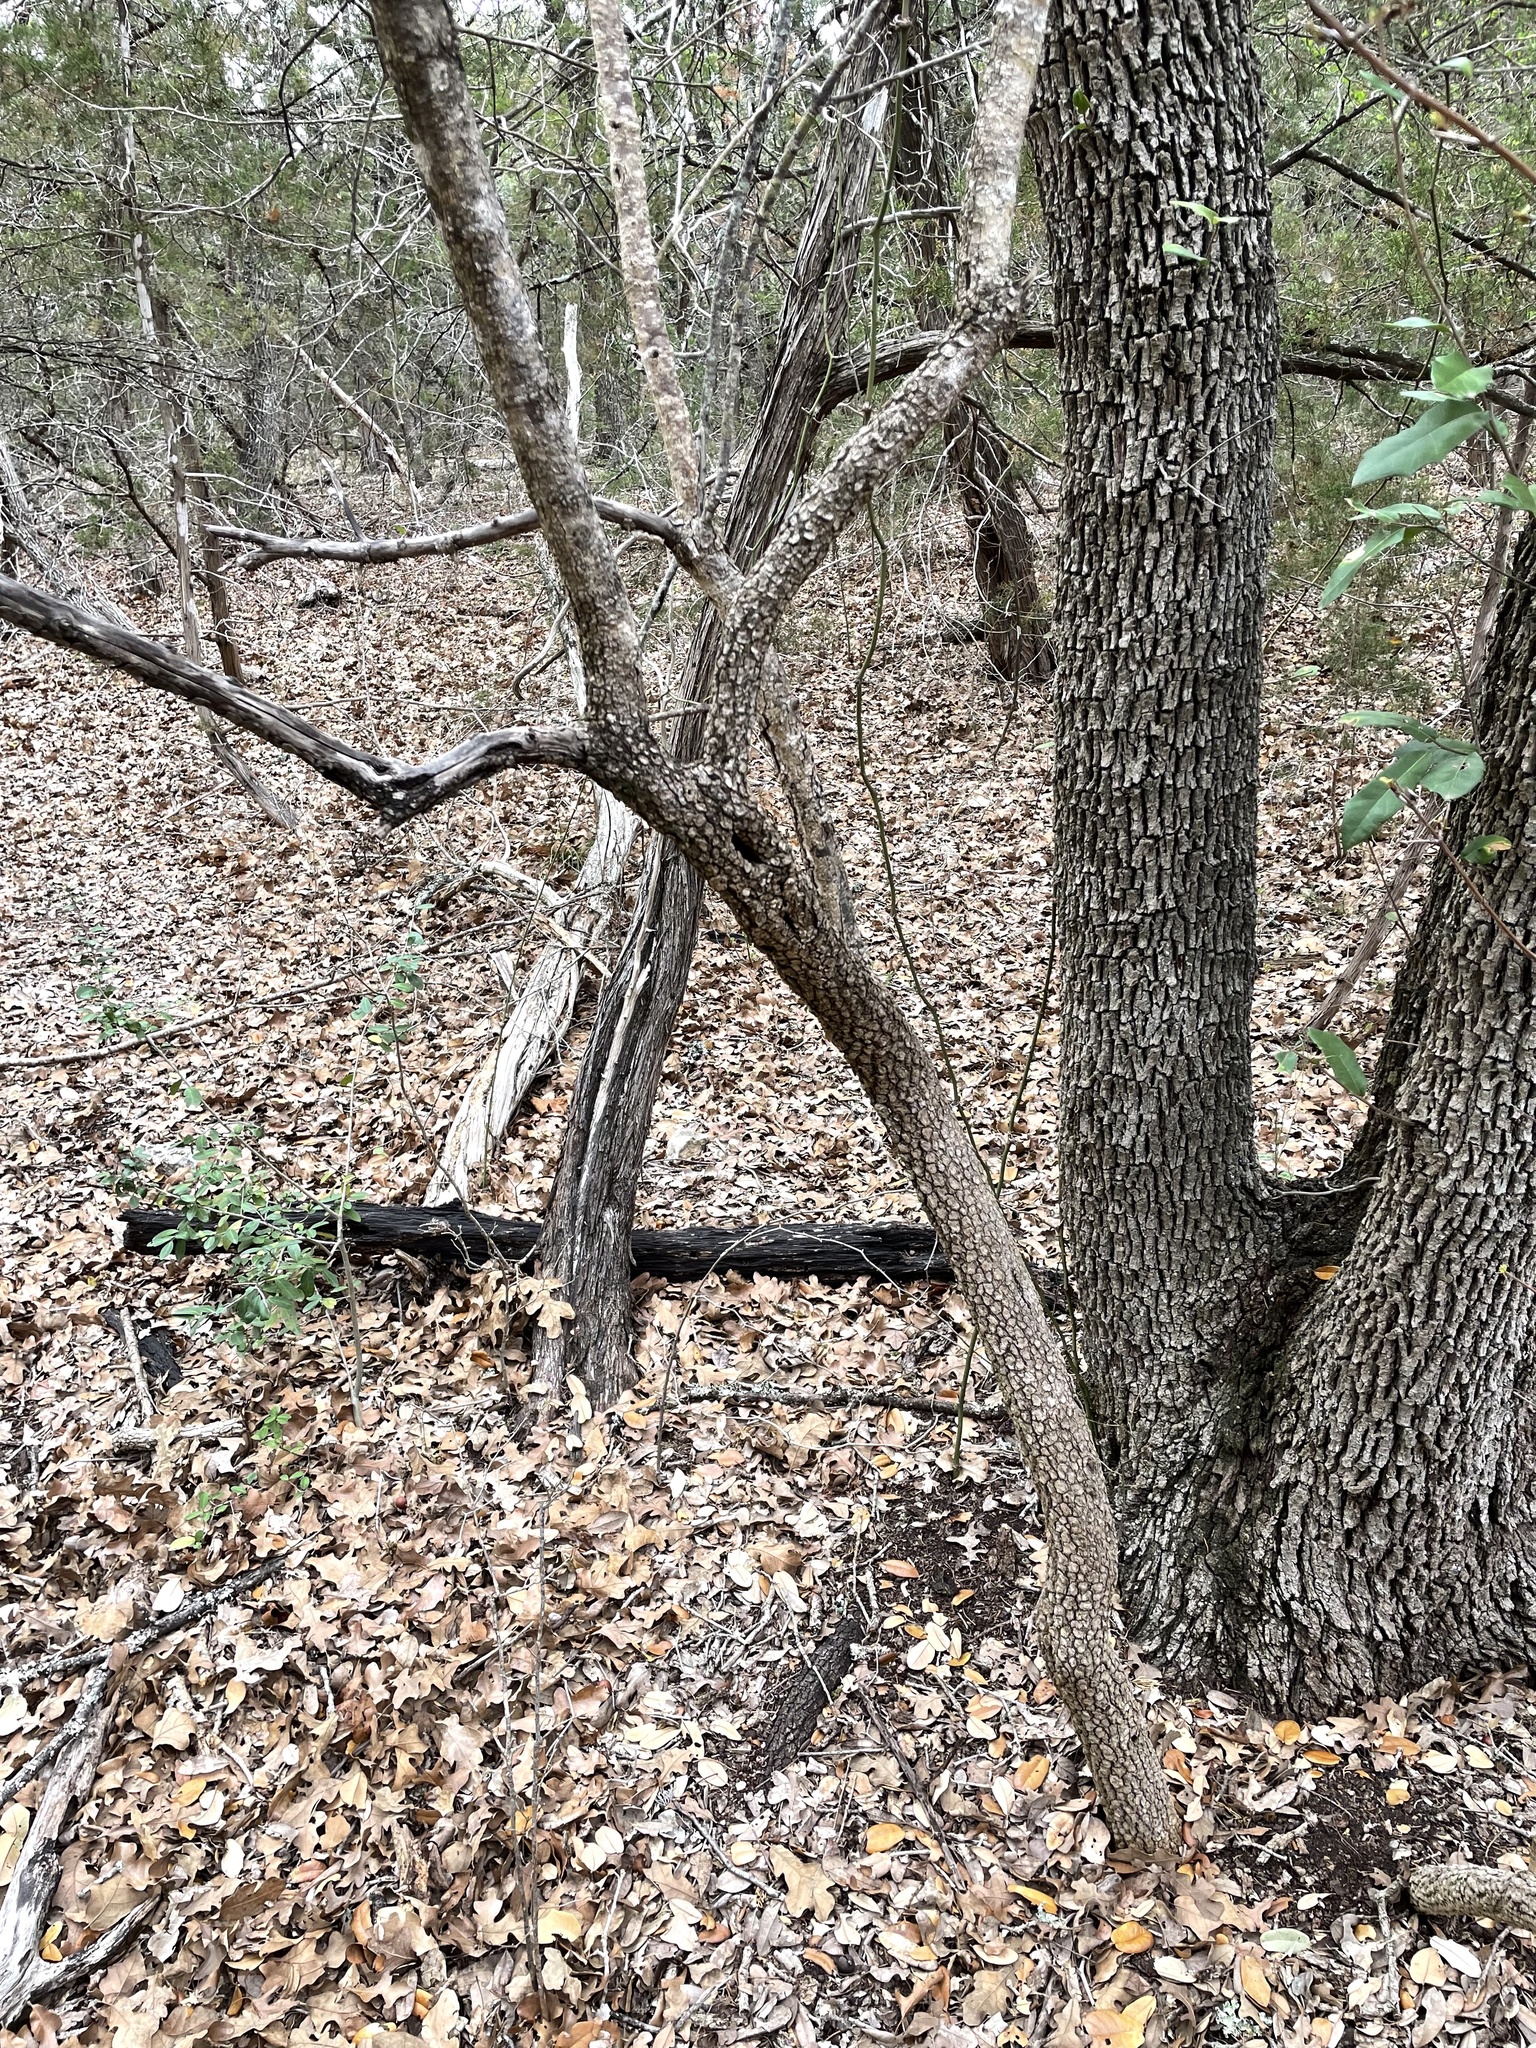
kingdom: Plantae
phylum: Tracheophyta
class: Magnoliopsida
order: Dipsacales
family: Viburnaceae
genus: Viburnum
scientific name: Viburnum rufidulum
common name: Blue haw
